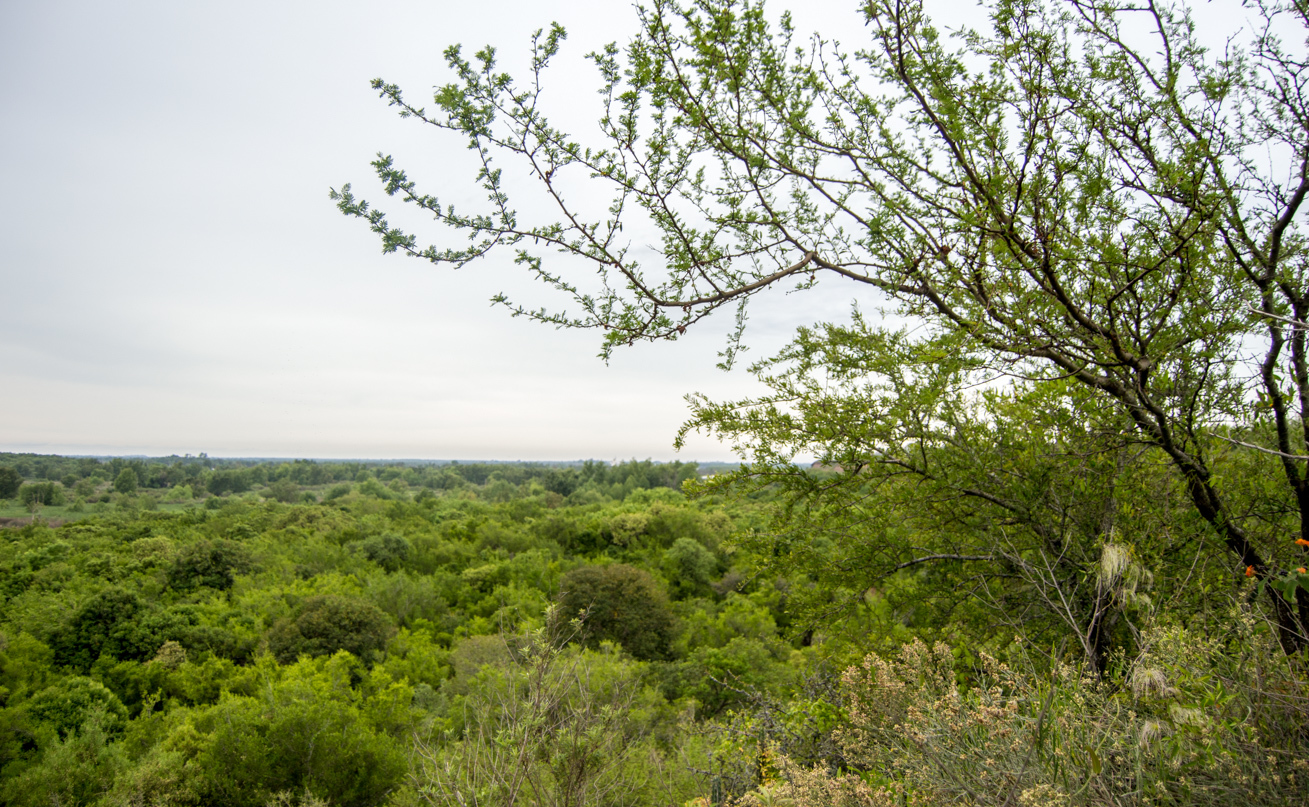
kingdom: Plantae
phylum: Tracheophyta
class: Magnoliopsida
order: Fabales
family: Fabaceae
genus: Vachellia
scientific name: Vachellia caven
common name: Roman cassie
